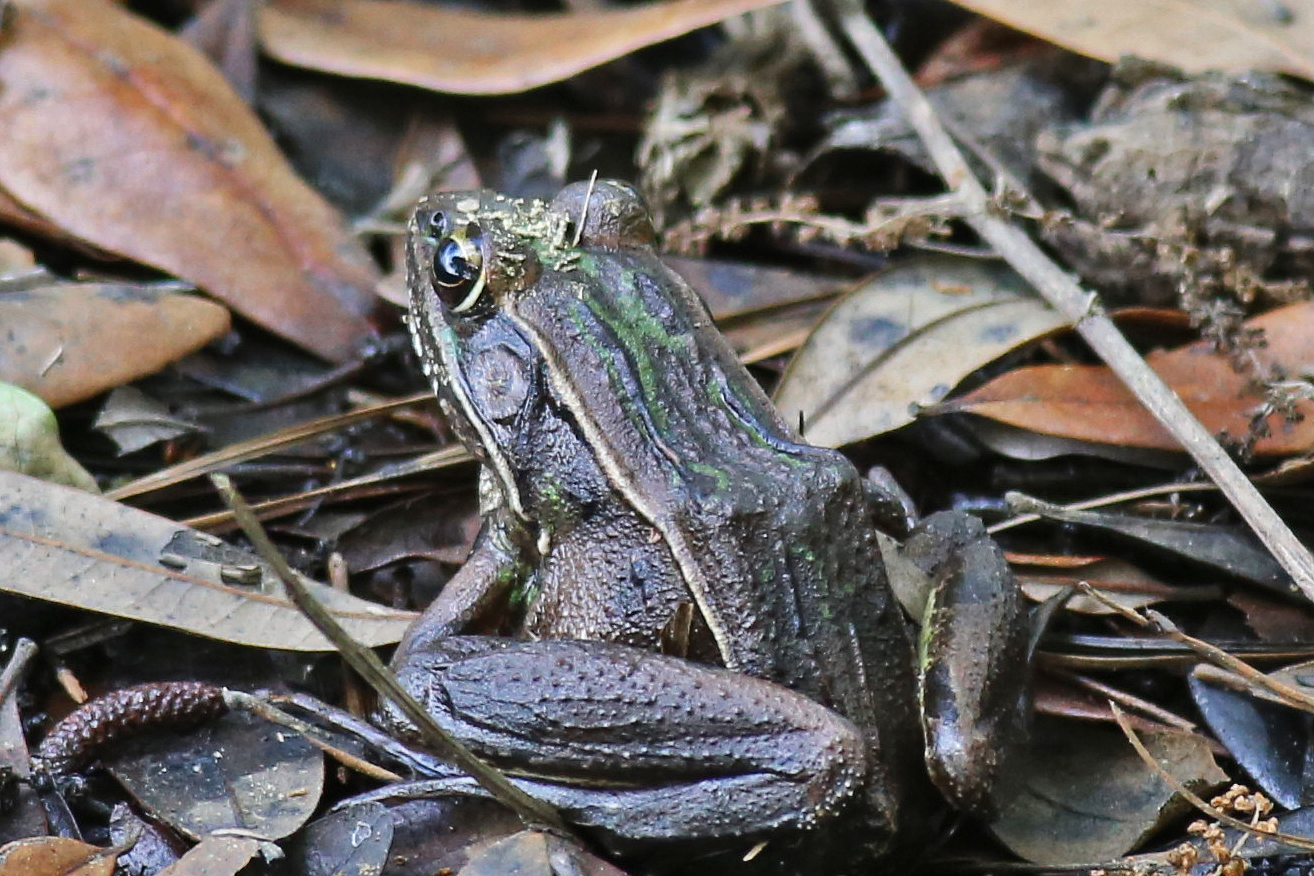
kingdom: Animalia
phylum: Chordata
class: Amphibia
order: Anura
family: Ranidae
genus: Lithobates
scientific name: Lithobates sphenocephalus
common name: Southern leopard frog
